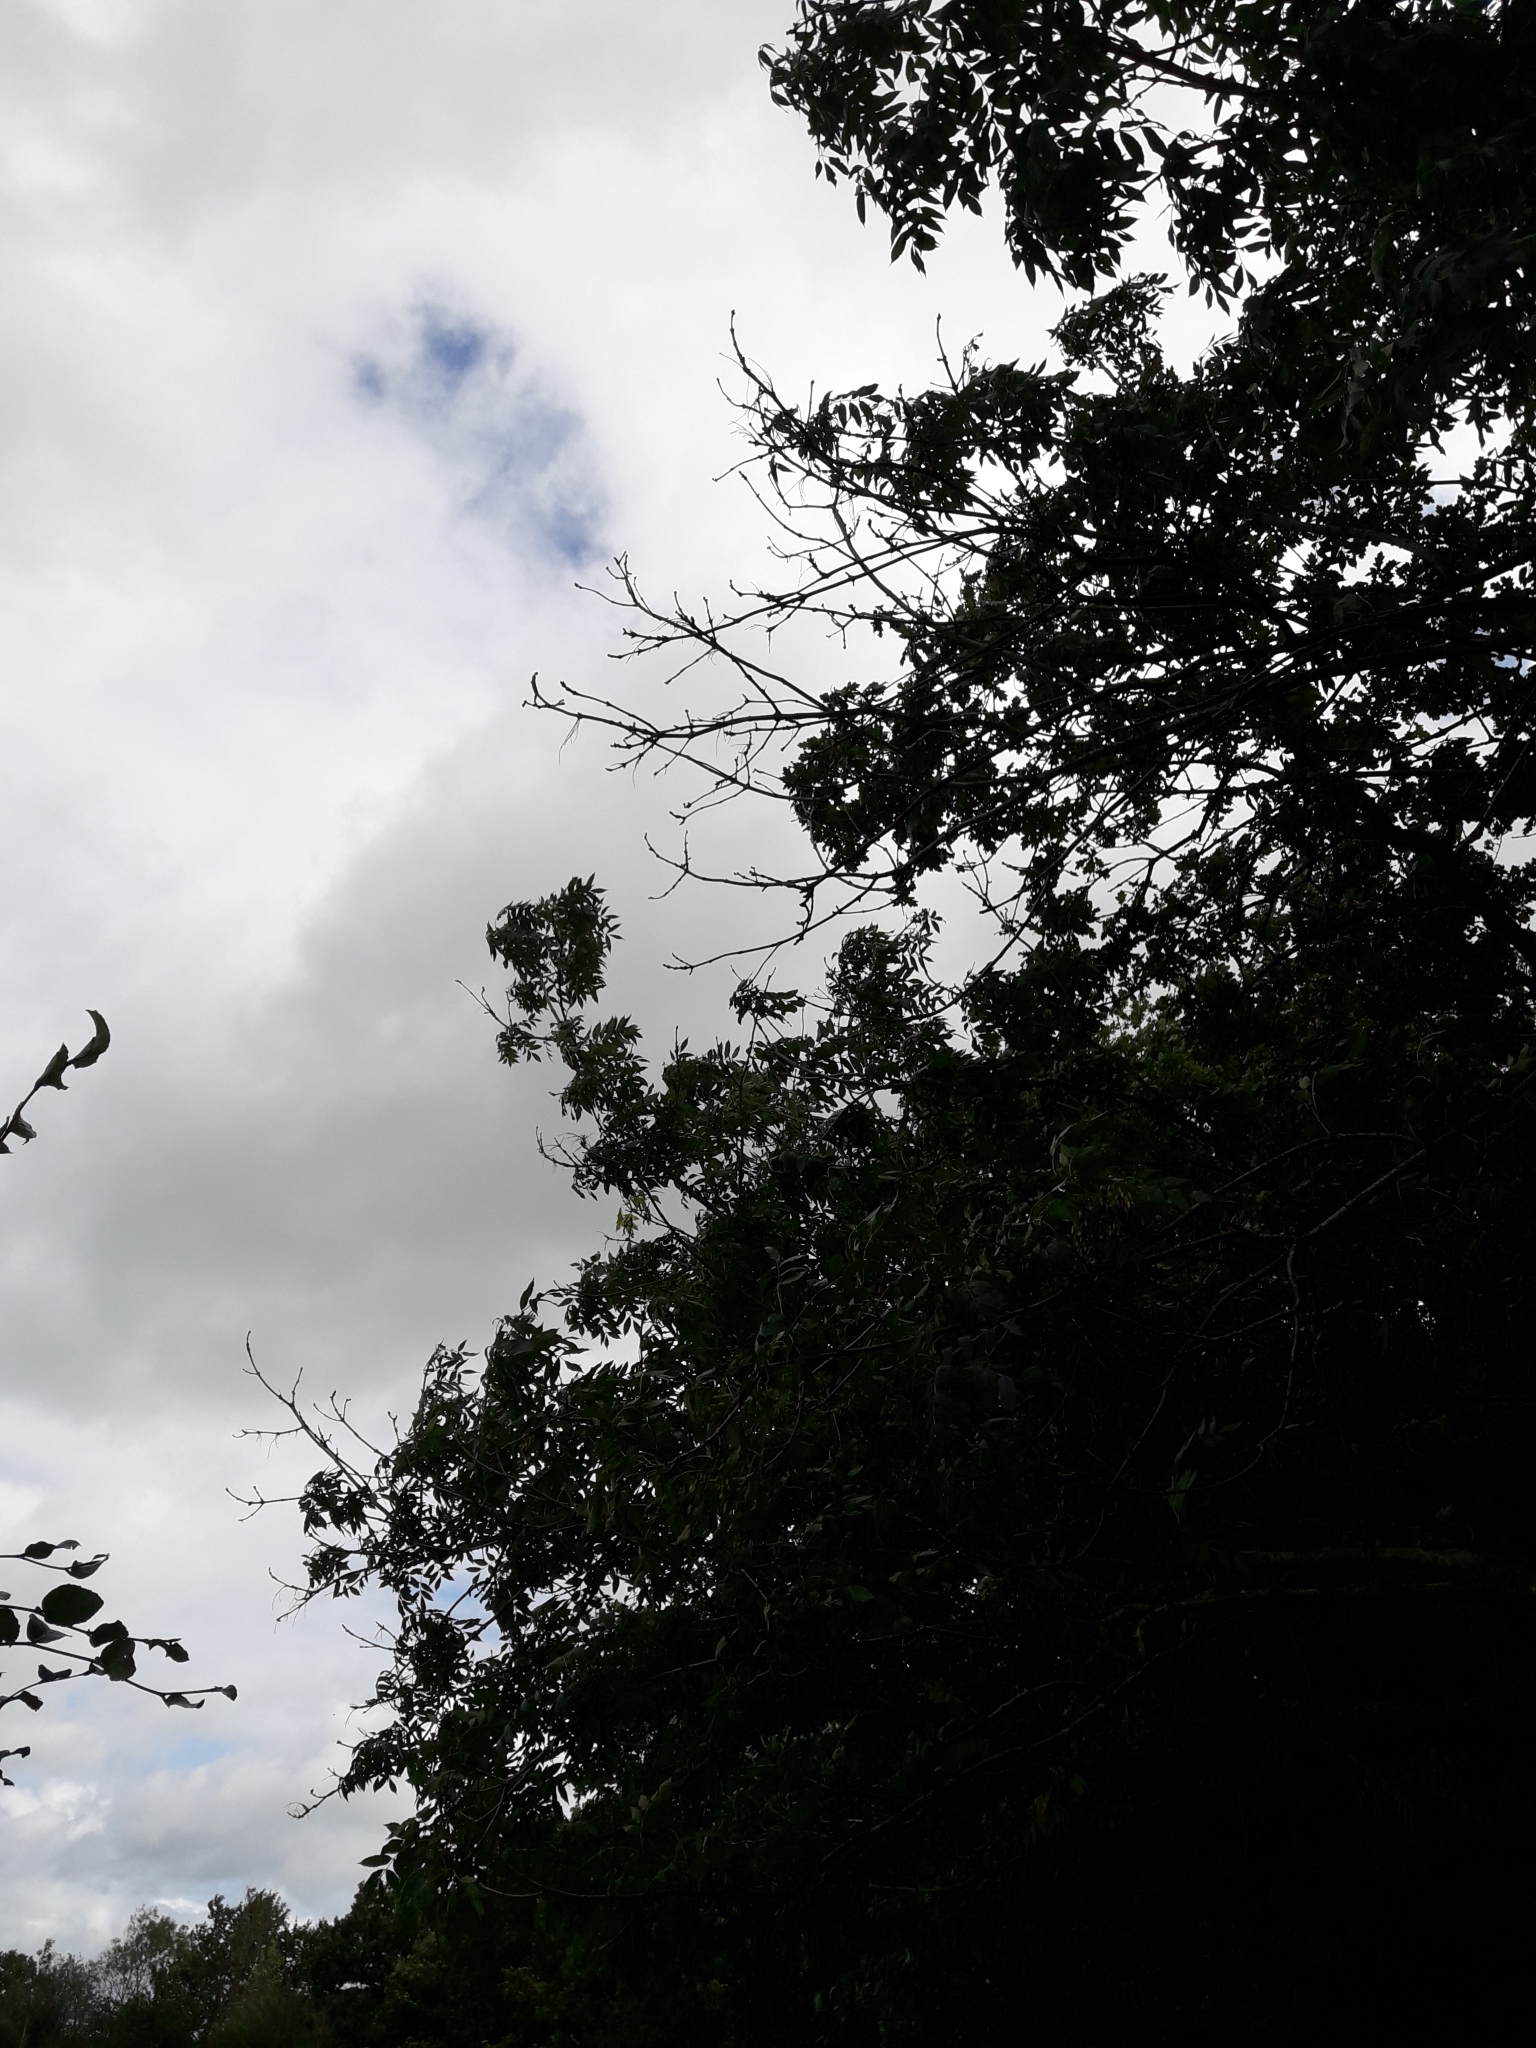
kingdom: Plantae
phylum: Tracheophyta
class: Magnoliopsida
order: Lamiales
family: Oleaceae
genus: Fraxinus
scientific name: Fraxinus excelsior
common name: European ash
